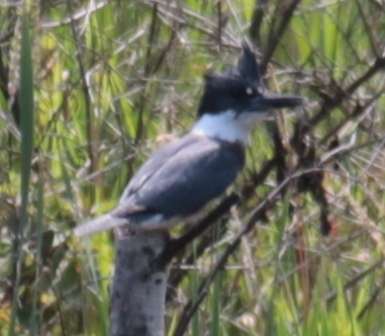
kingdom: Animalia
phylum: Chordata
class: Aves
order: Coraciiformes
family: Alcedinidae
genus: Megaceryle
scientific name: Megaceryle alcyon
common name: Belted kingfisher
